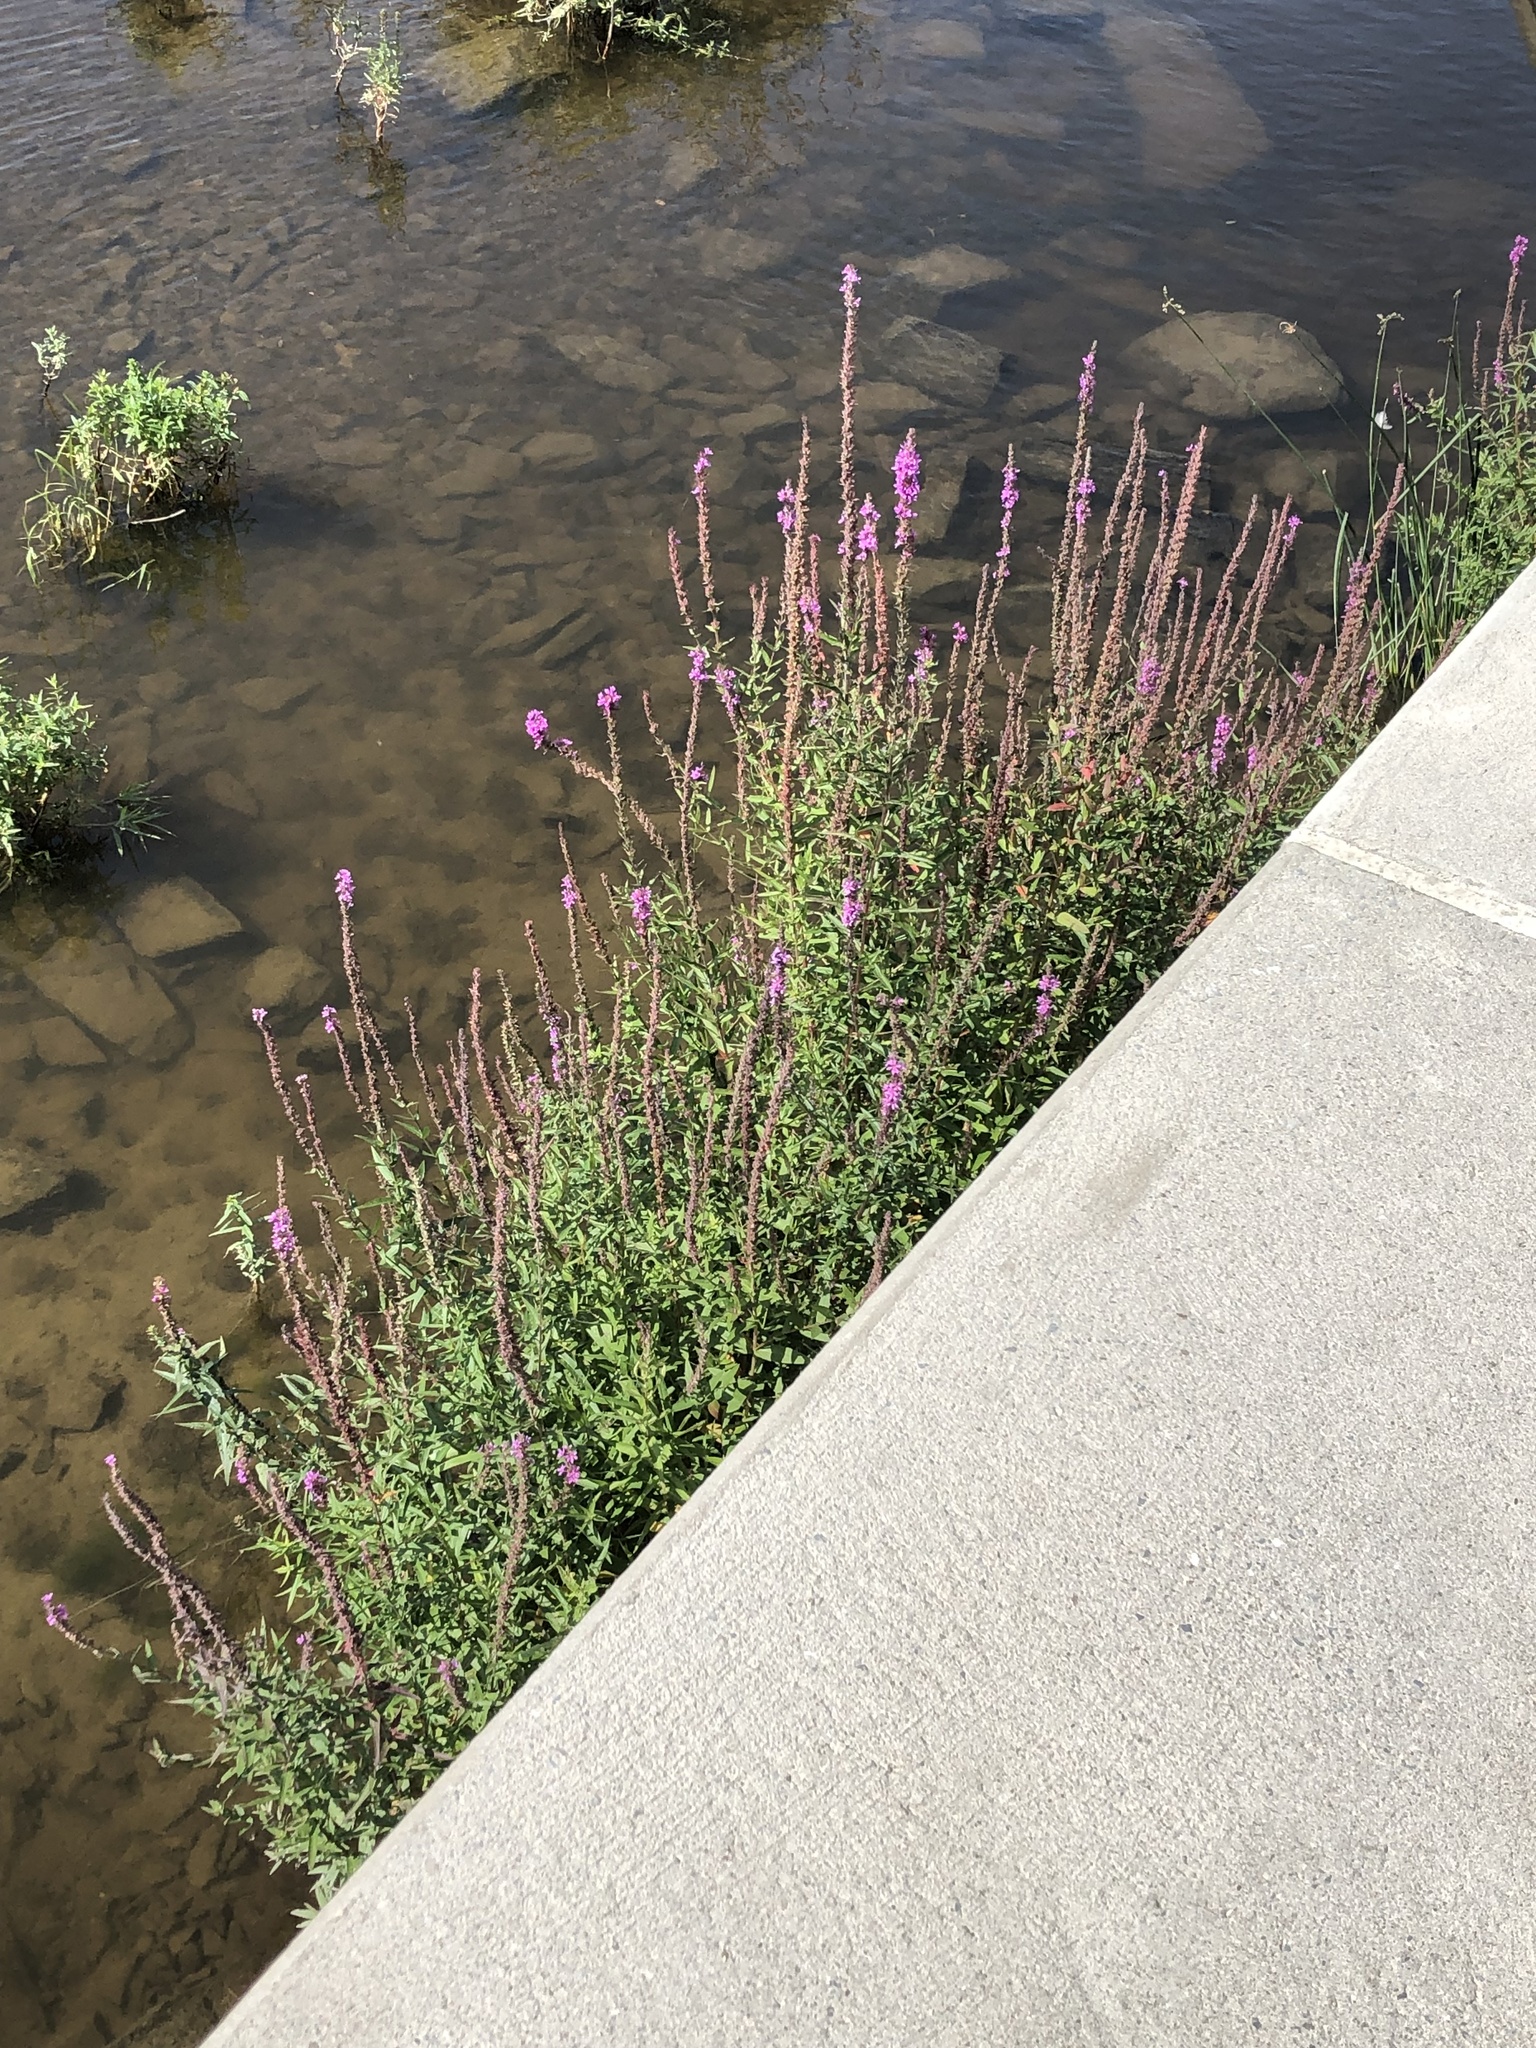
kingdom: Plantae
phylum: Tracheophyta
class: Magnoliopsida
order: Myrtales
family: Lythraceae
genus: Lythrum
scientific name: Lythrum salicaria
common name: Purple loosestrife
